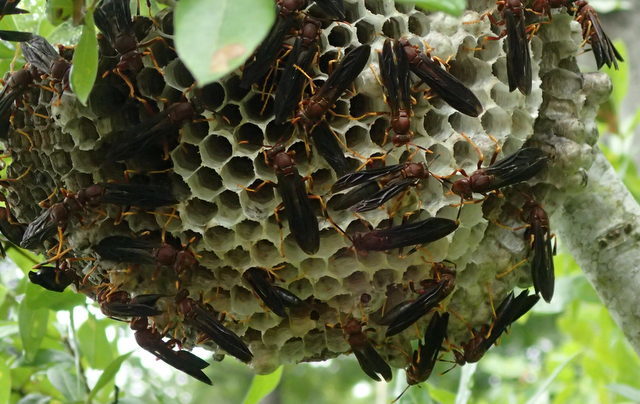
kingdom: Animalia
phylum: Arthropoda
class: Insecta
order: Hymenoptera
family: Eumenidae
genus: Polistes
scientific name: Polistes annularis
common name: Ringed paper wasp
